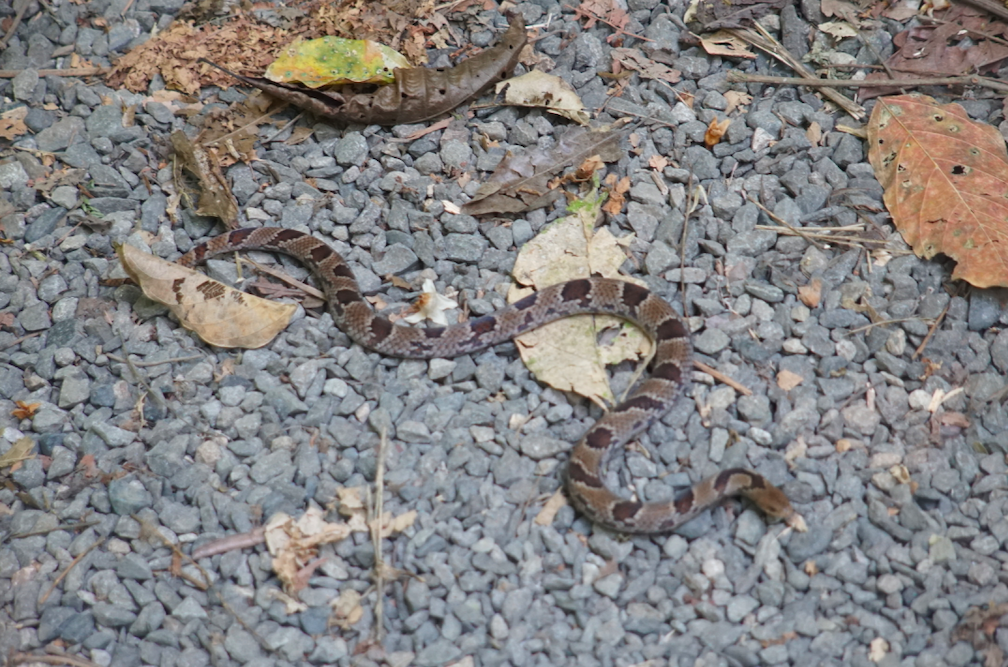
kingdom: Animalia
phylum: Chordata
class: Squamata
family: Colubridae
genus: Stenorrhina
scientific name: Stenorrhina degenhardtii
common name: Degenhardt's scorpion-eating snake
